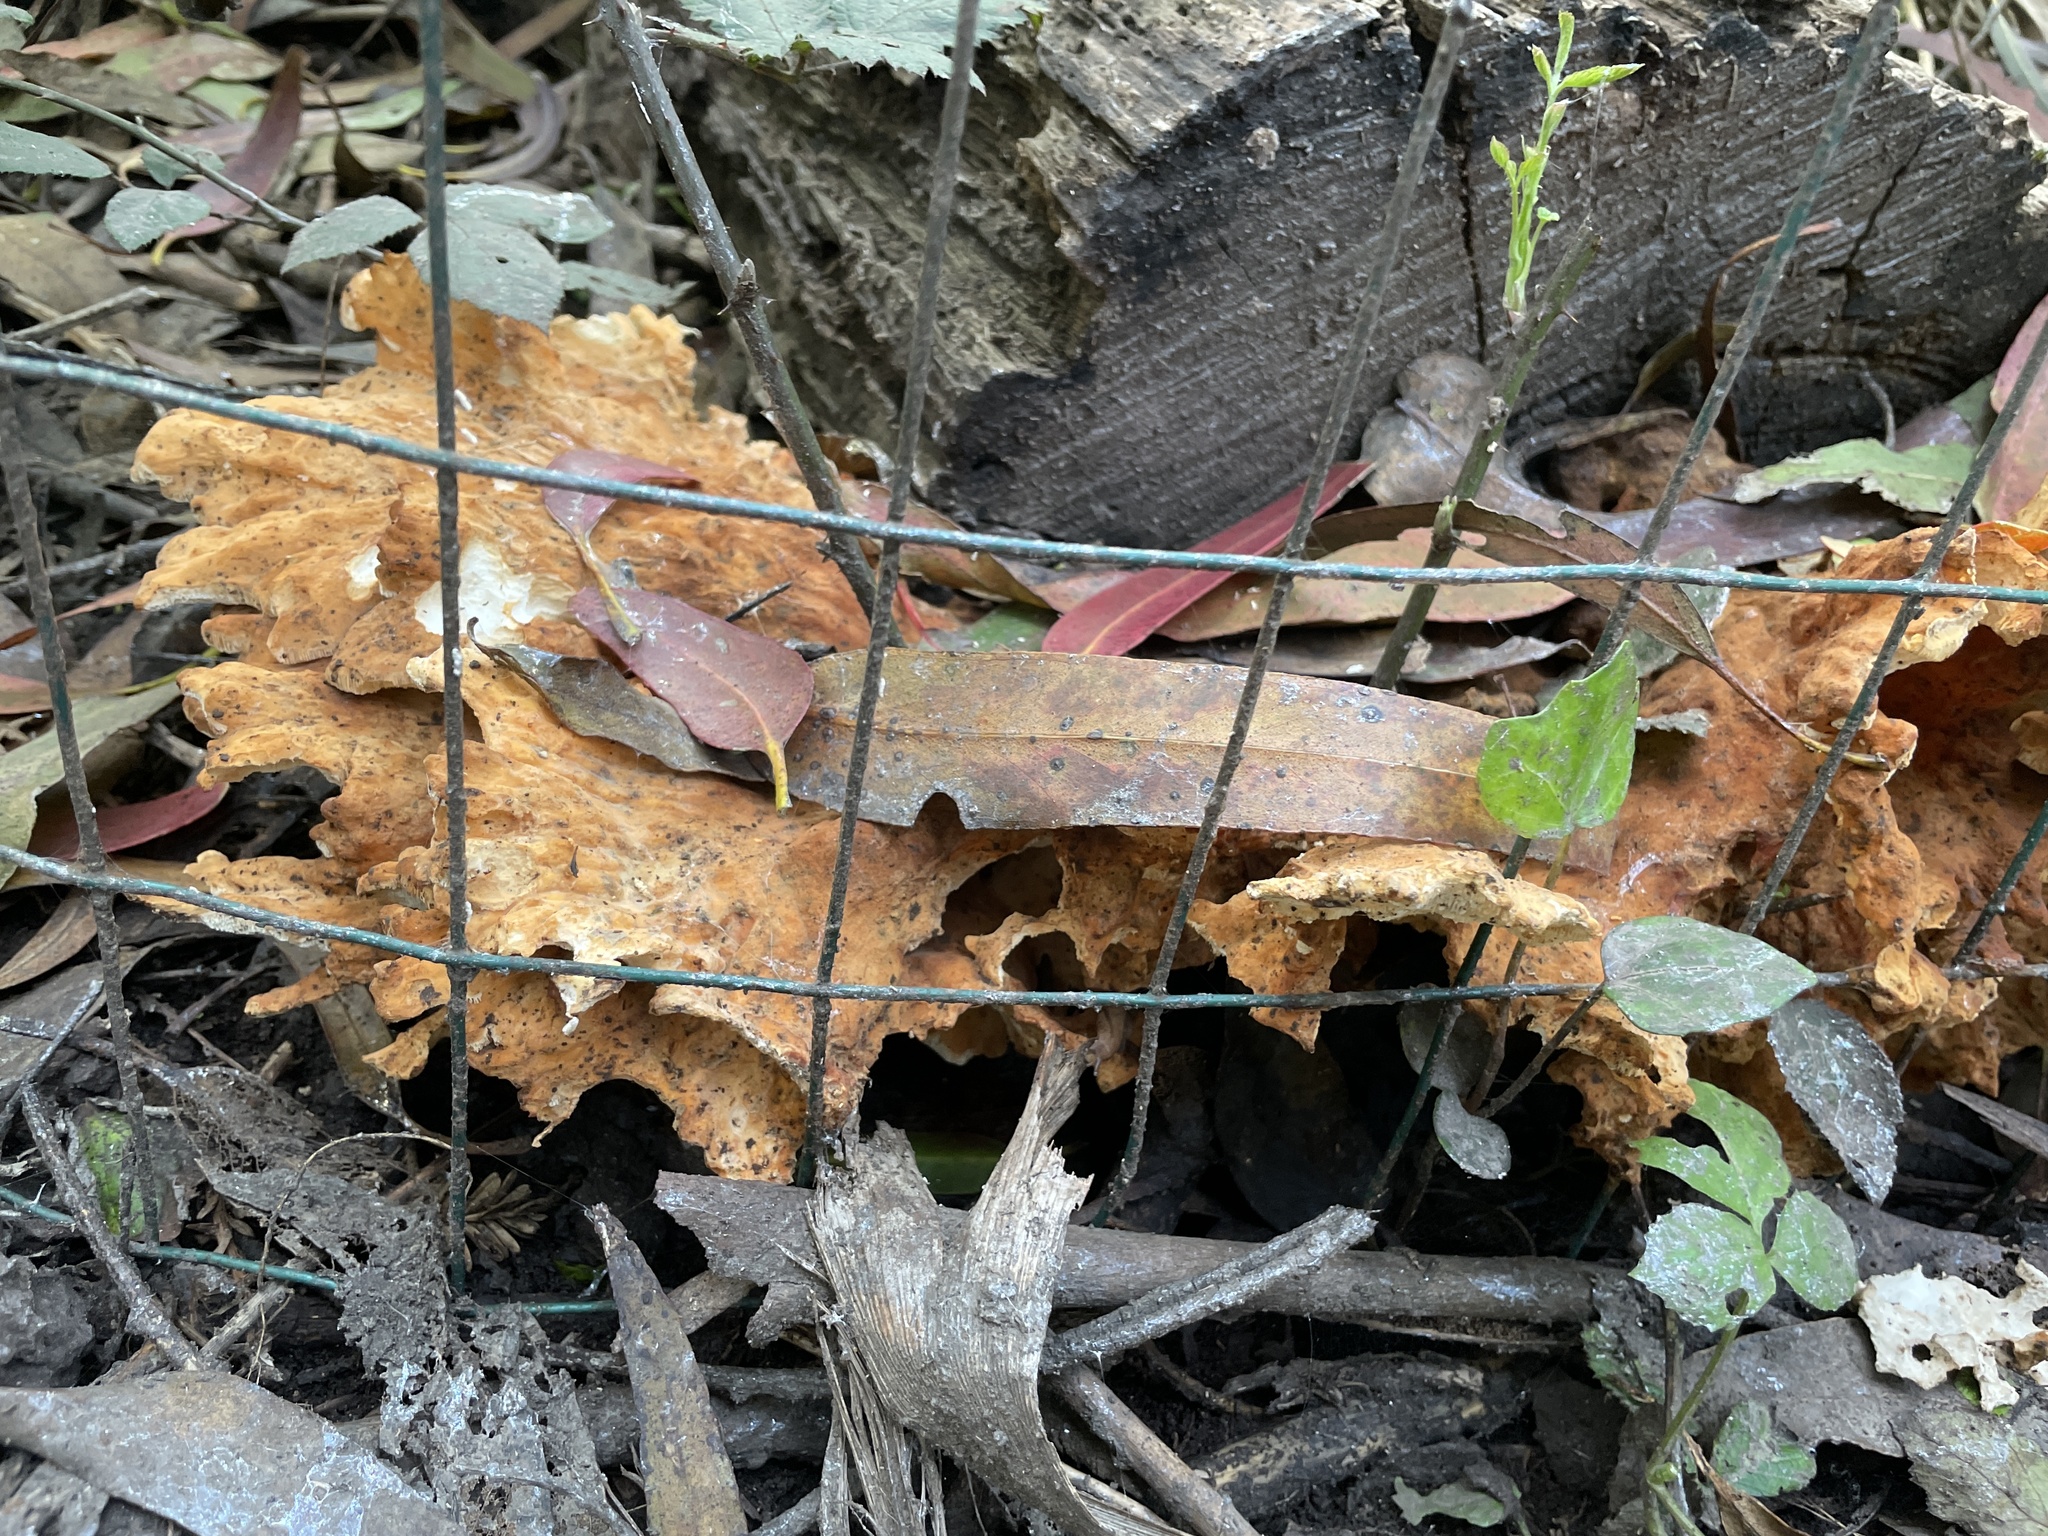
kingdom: Fungi
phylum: Basidiomycota
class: Agaricomycetes
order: Polyporales
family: Laetiporaceae
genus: Laetiporus
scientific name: Laetiporus gilbertsonii
